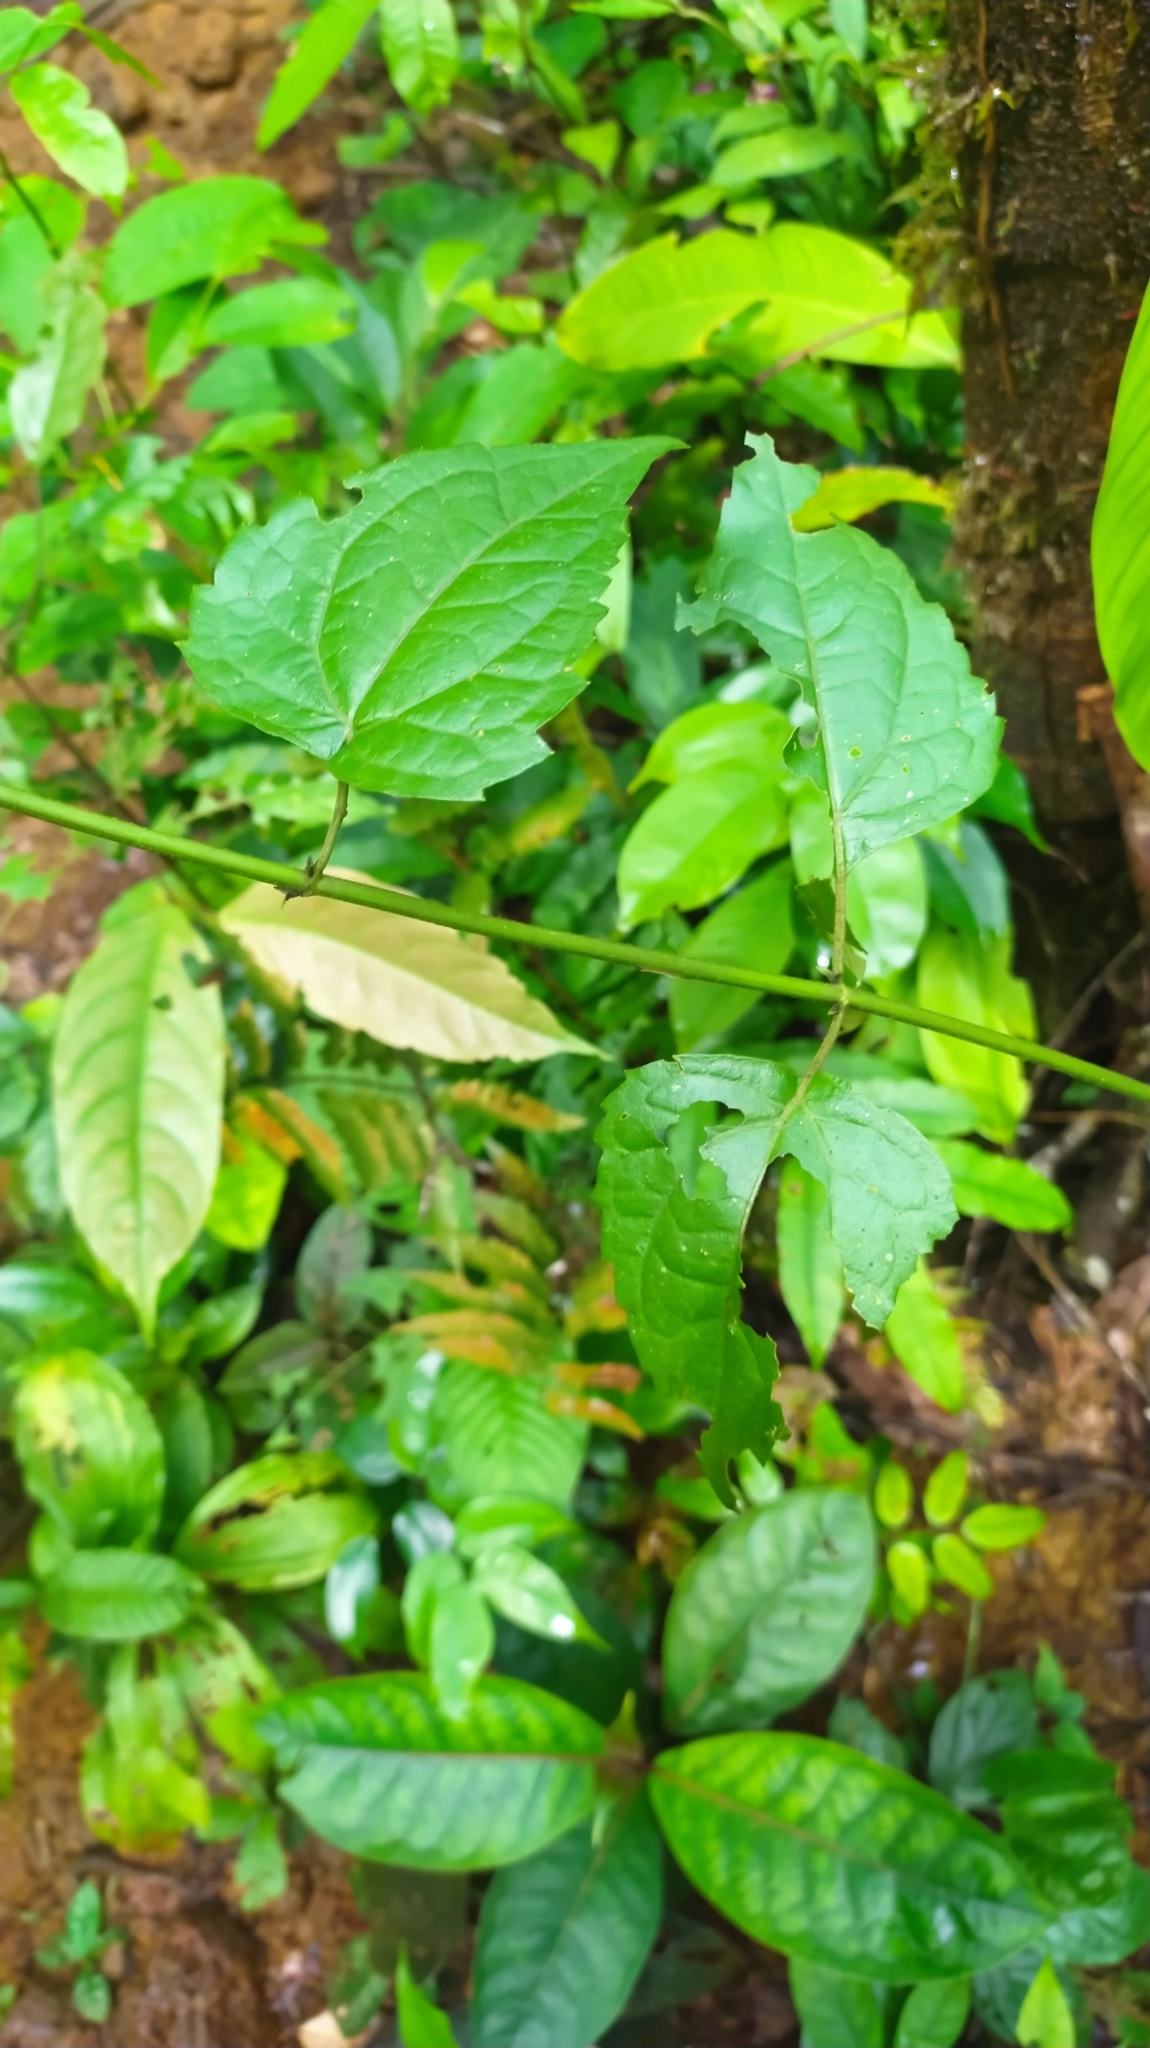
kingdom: Plantae
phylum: Tracheophyta
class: Magnoliopsida
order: Asterales
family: Asteraceae
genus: Chromolaena
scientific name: Chromolaena odorata
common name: Siamweed
